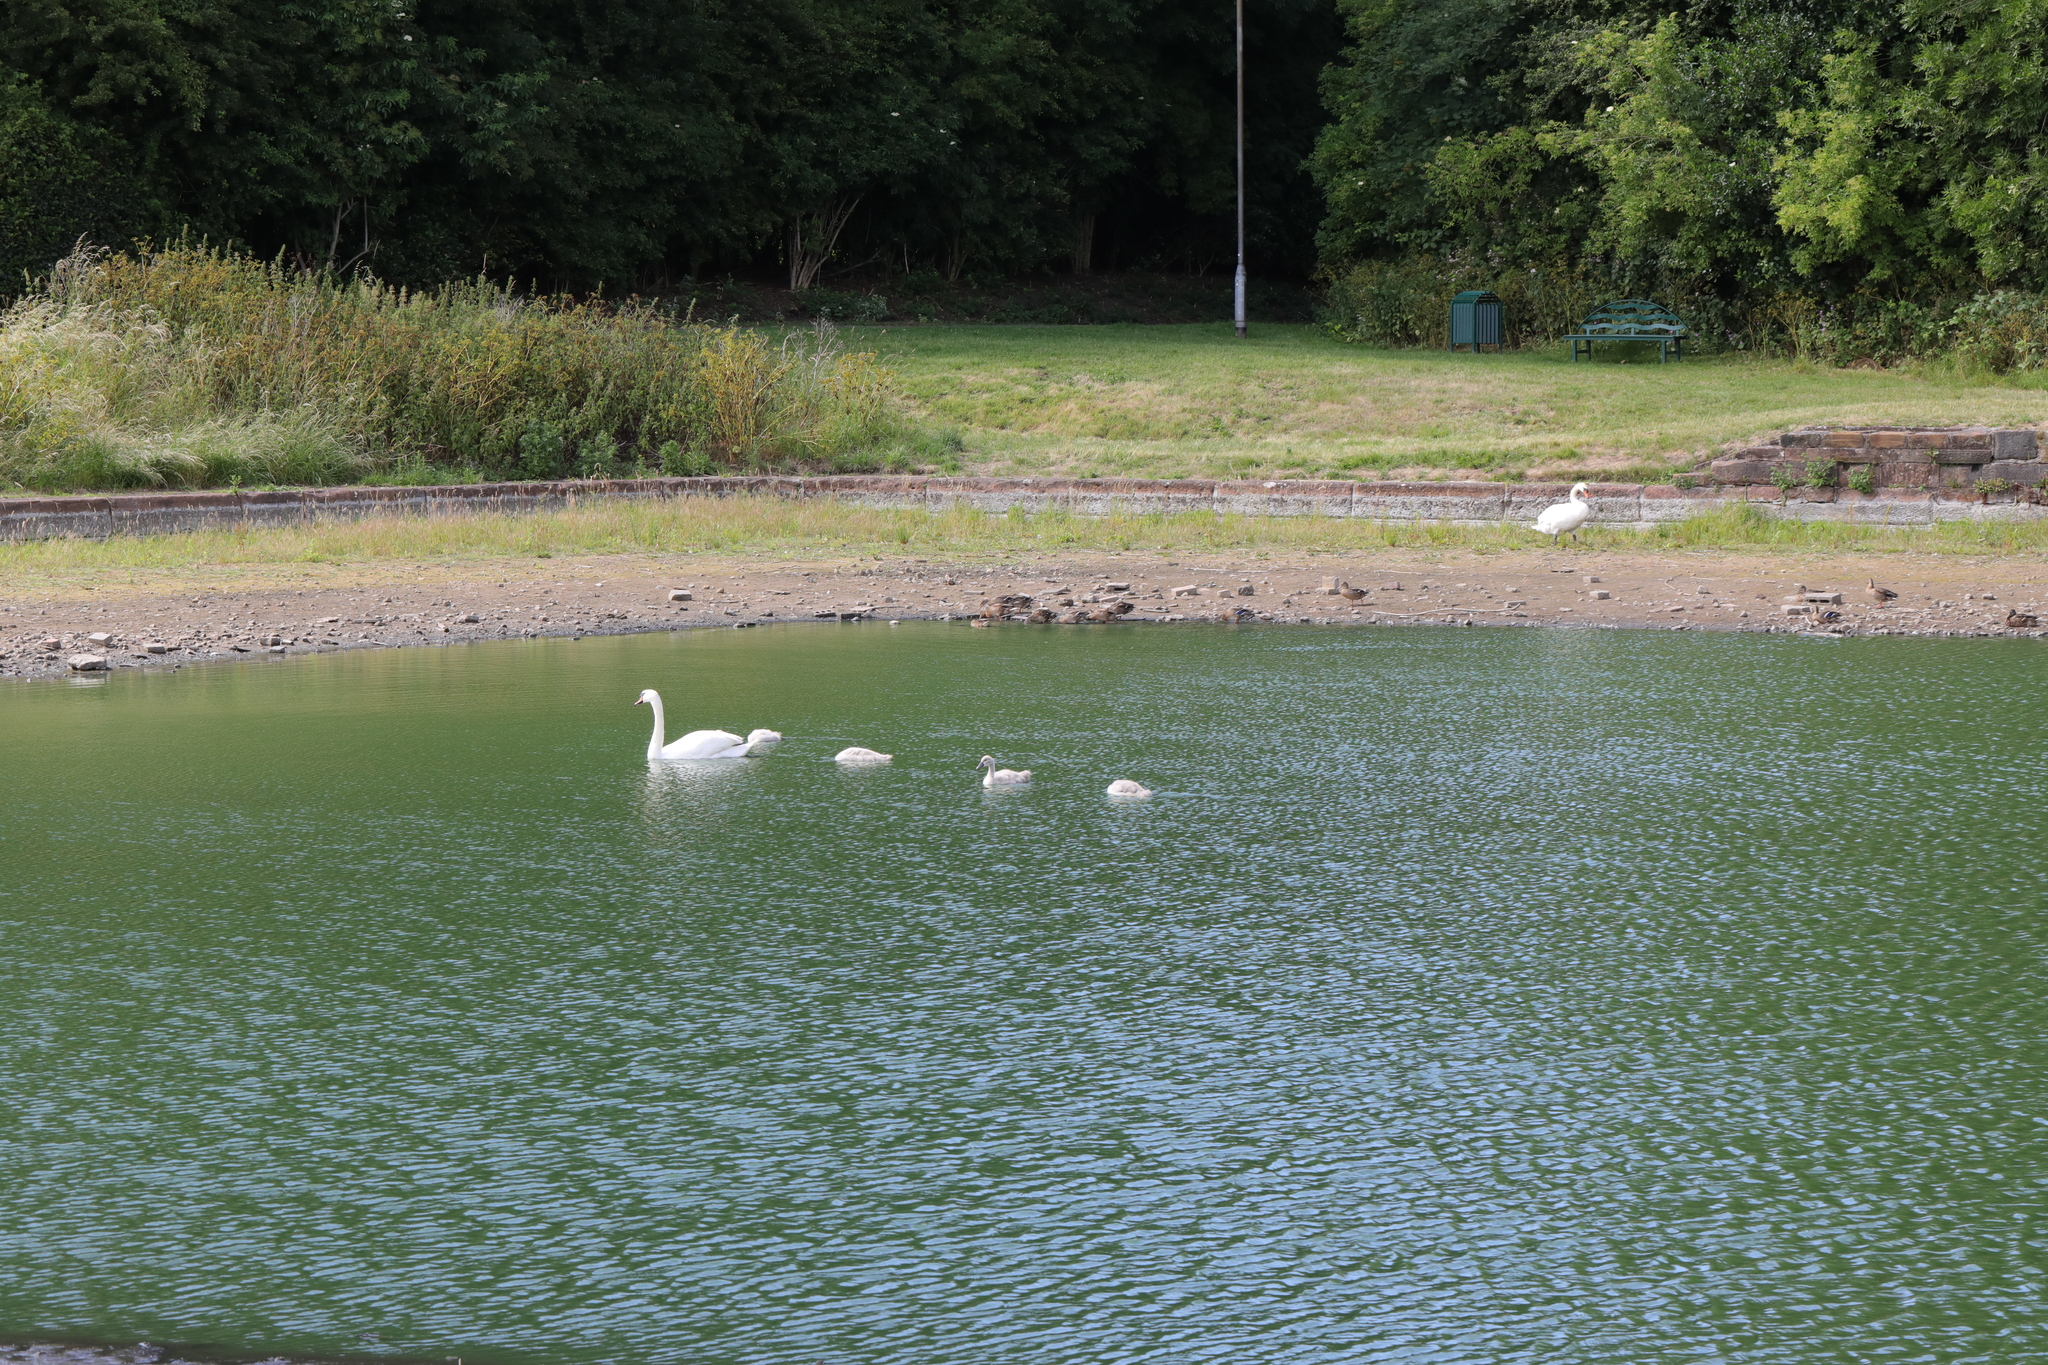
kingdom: Animalia
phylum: Chordata
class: Aves
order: Anseriformes
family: Anatidae
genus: Cygnus
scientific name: Cygnus olor
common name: Mute swan
